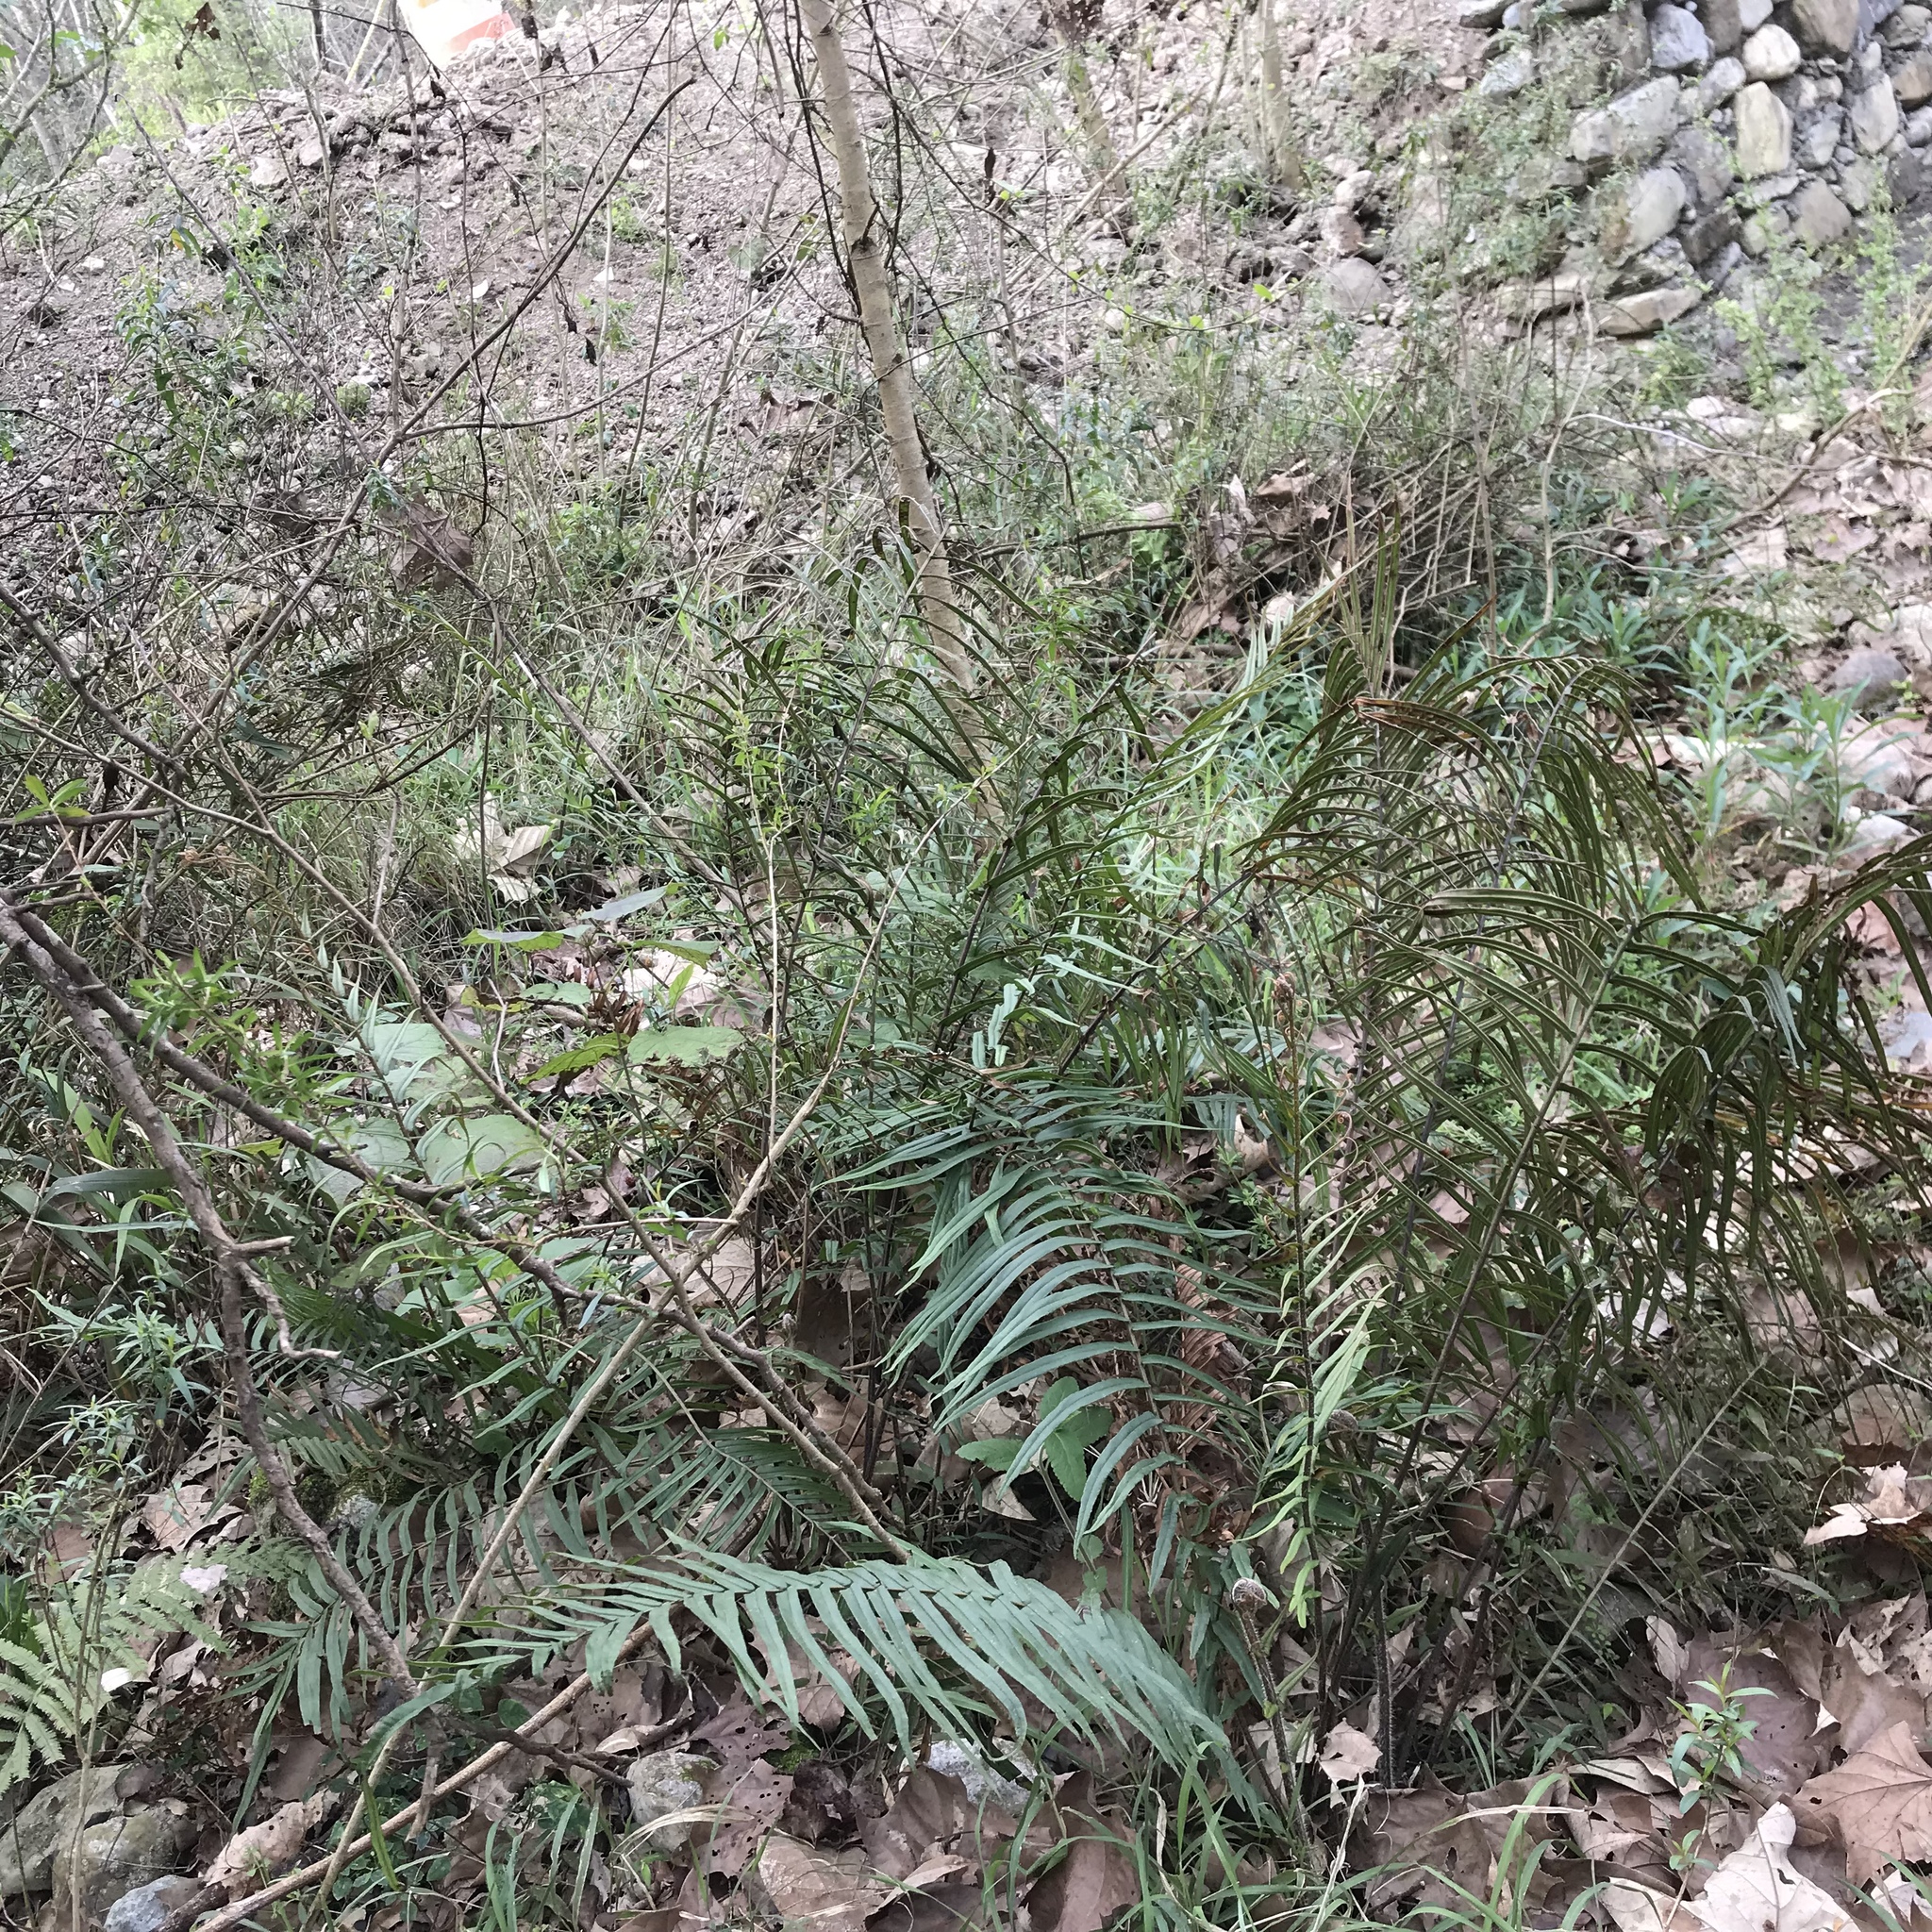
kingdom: Plantae
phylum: Tracheophyta
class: Polypodiopsida
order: Polypodiales
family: Pteridaceae
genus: Pteris
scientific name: Pteris vittata
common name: Ladder brake
